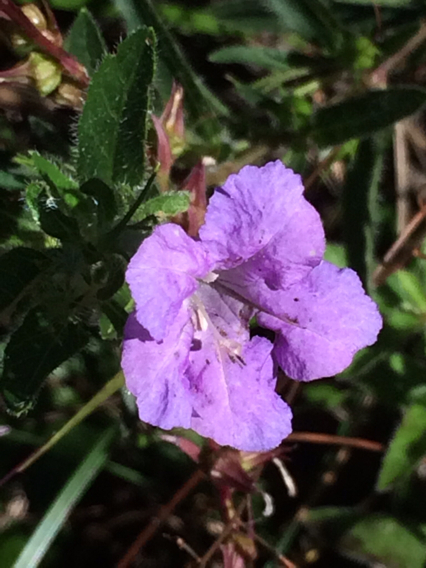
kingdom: Plantae
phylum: Tracheophyta
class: Magnoliopsida
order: Lamiales
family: Acanthaceae
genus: Ruellia
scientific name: Ruellia humilis
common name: Fringe-leaf ruellia
